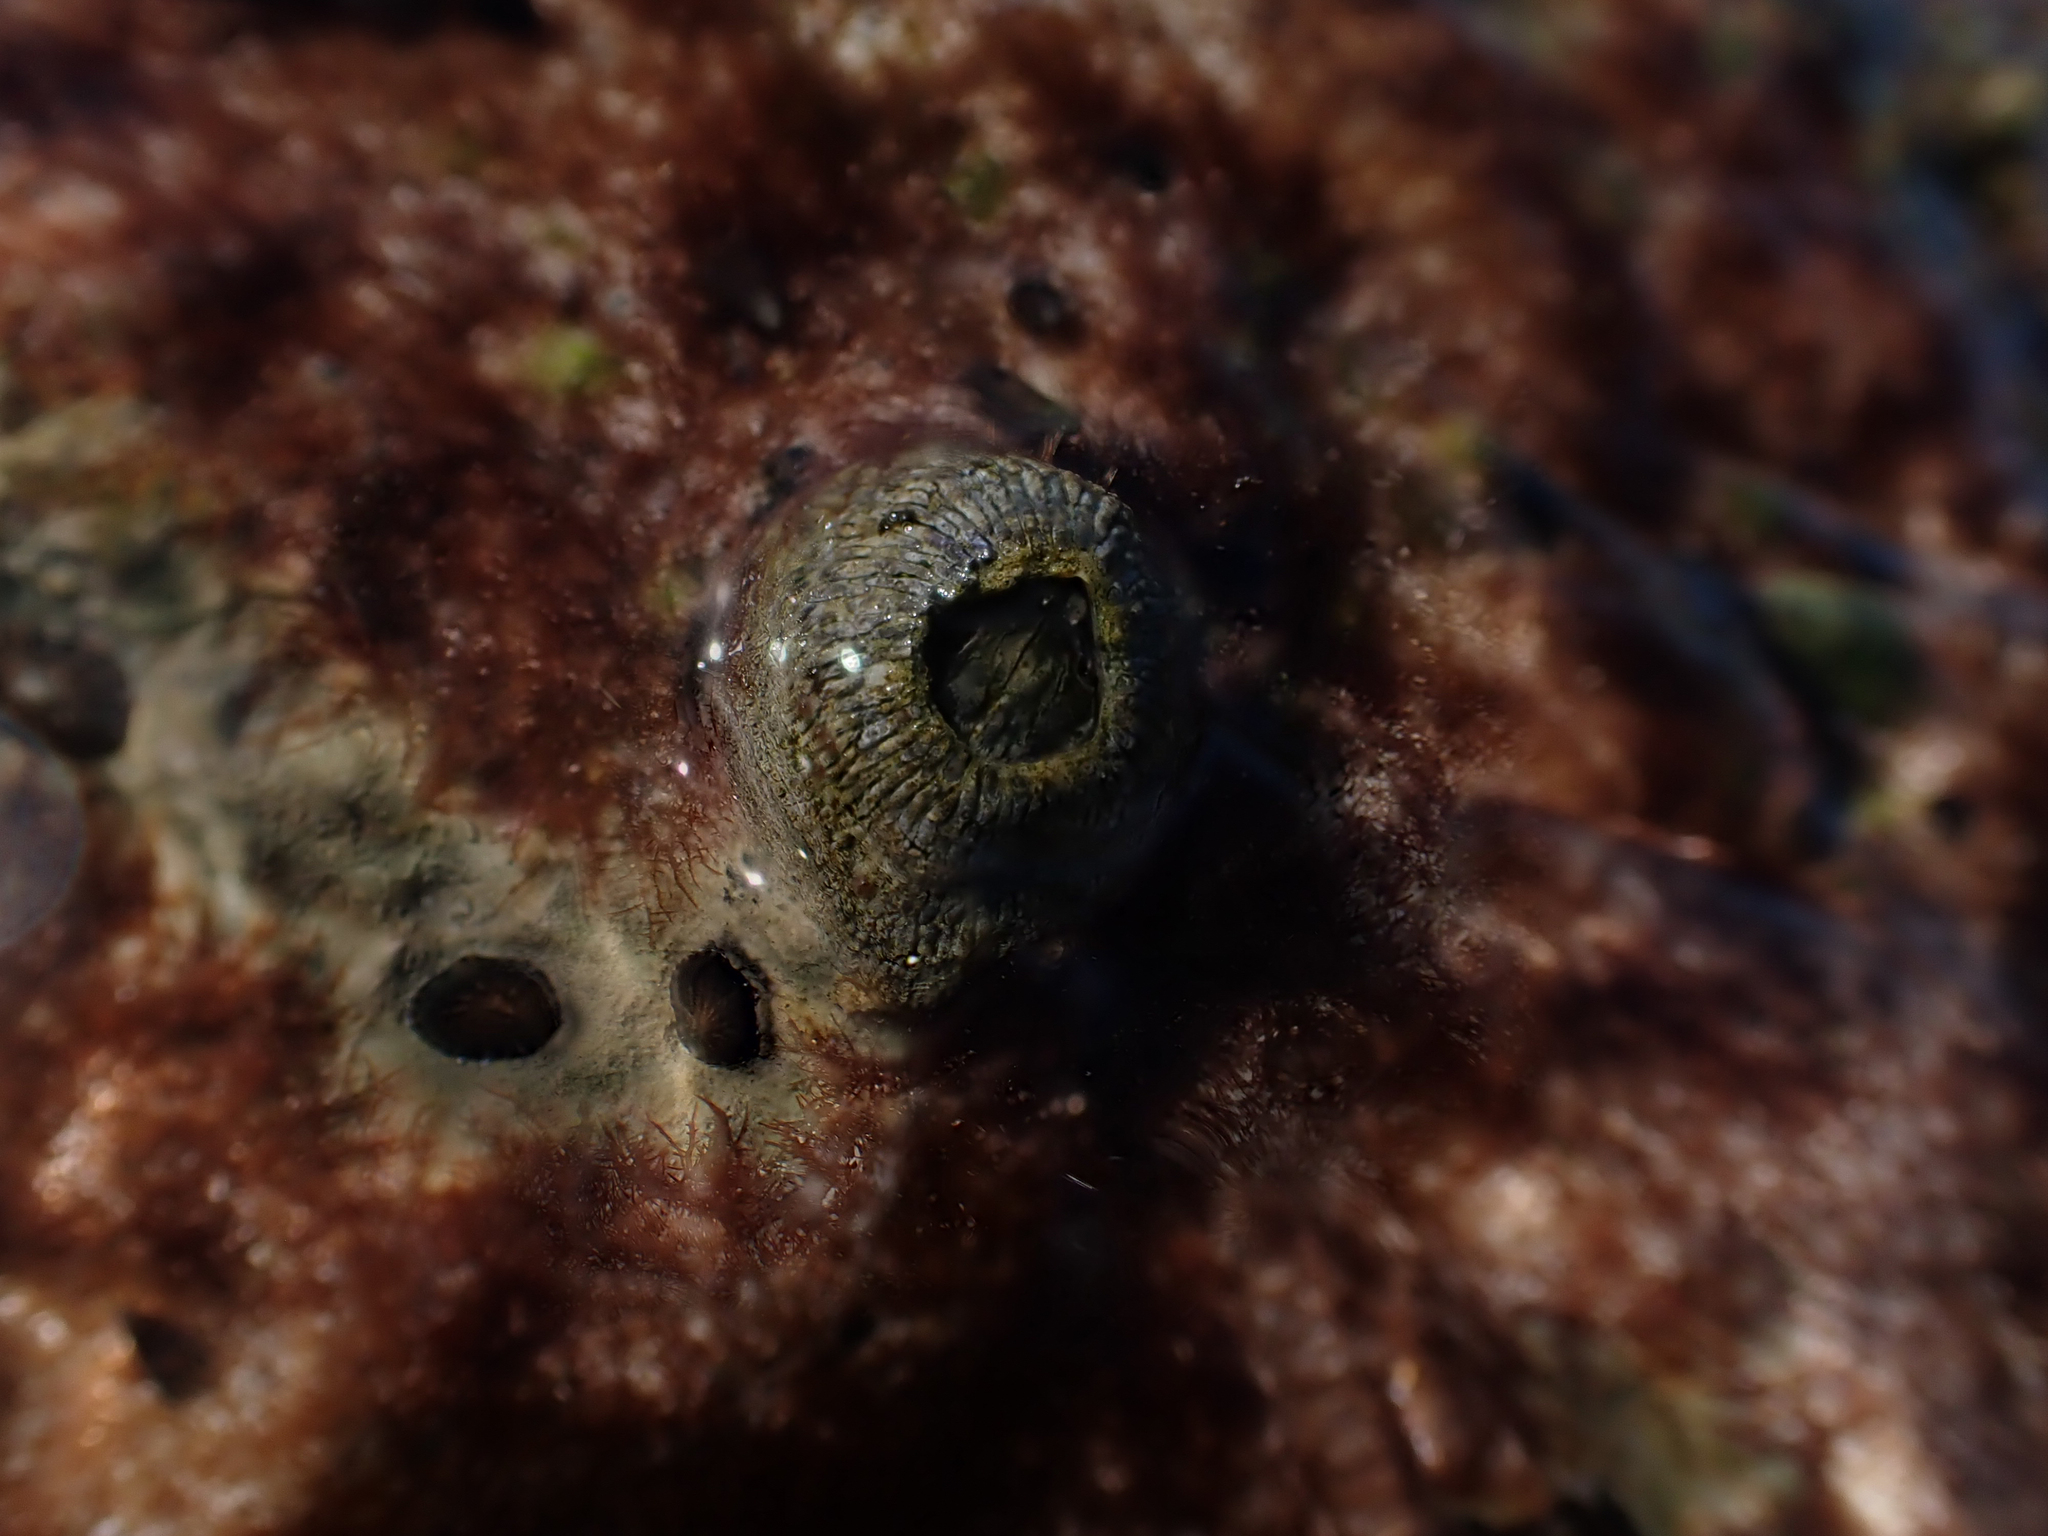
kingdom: Animalia
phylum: Arthropoda
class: Maxillopoda
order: Sessilia
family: Tetraclitidae
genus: Tetraclita
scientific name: Tetraclita stalactifera
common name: Ribbed barnacle
